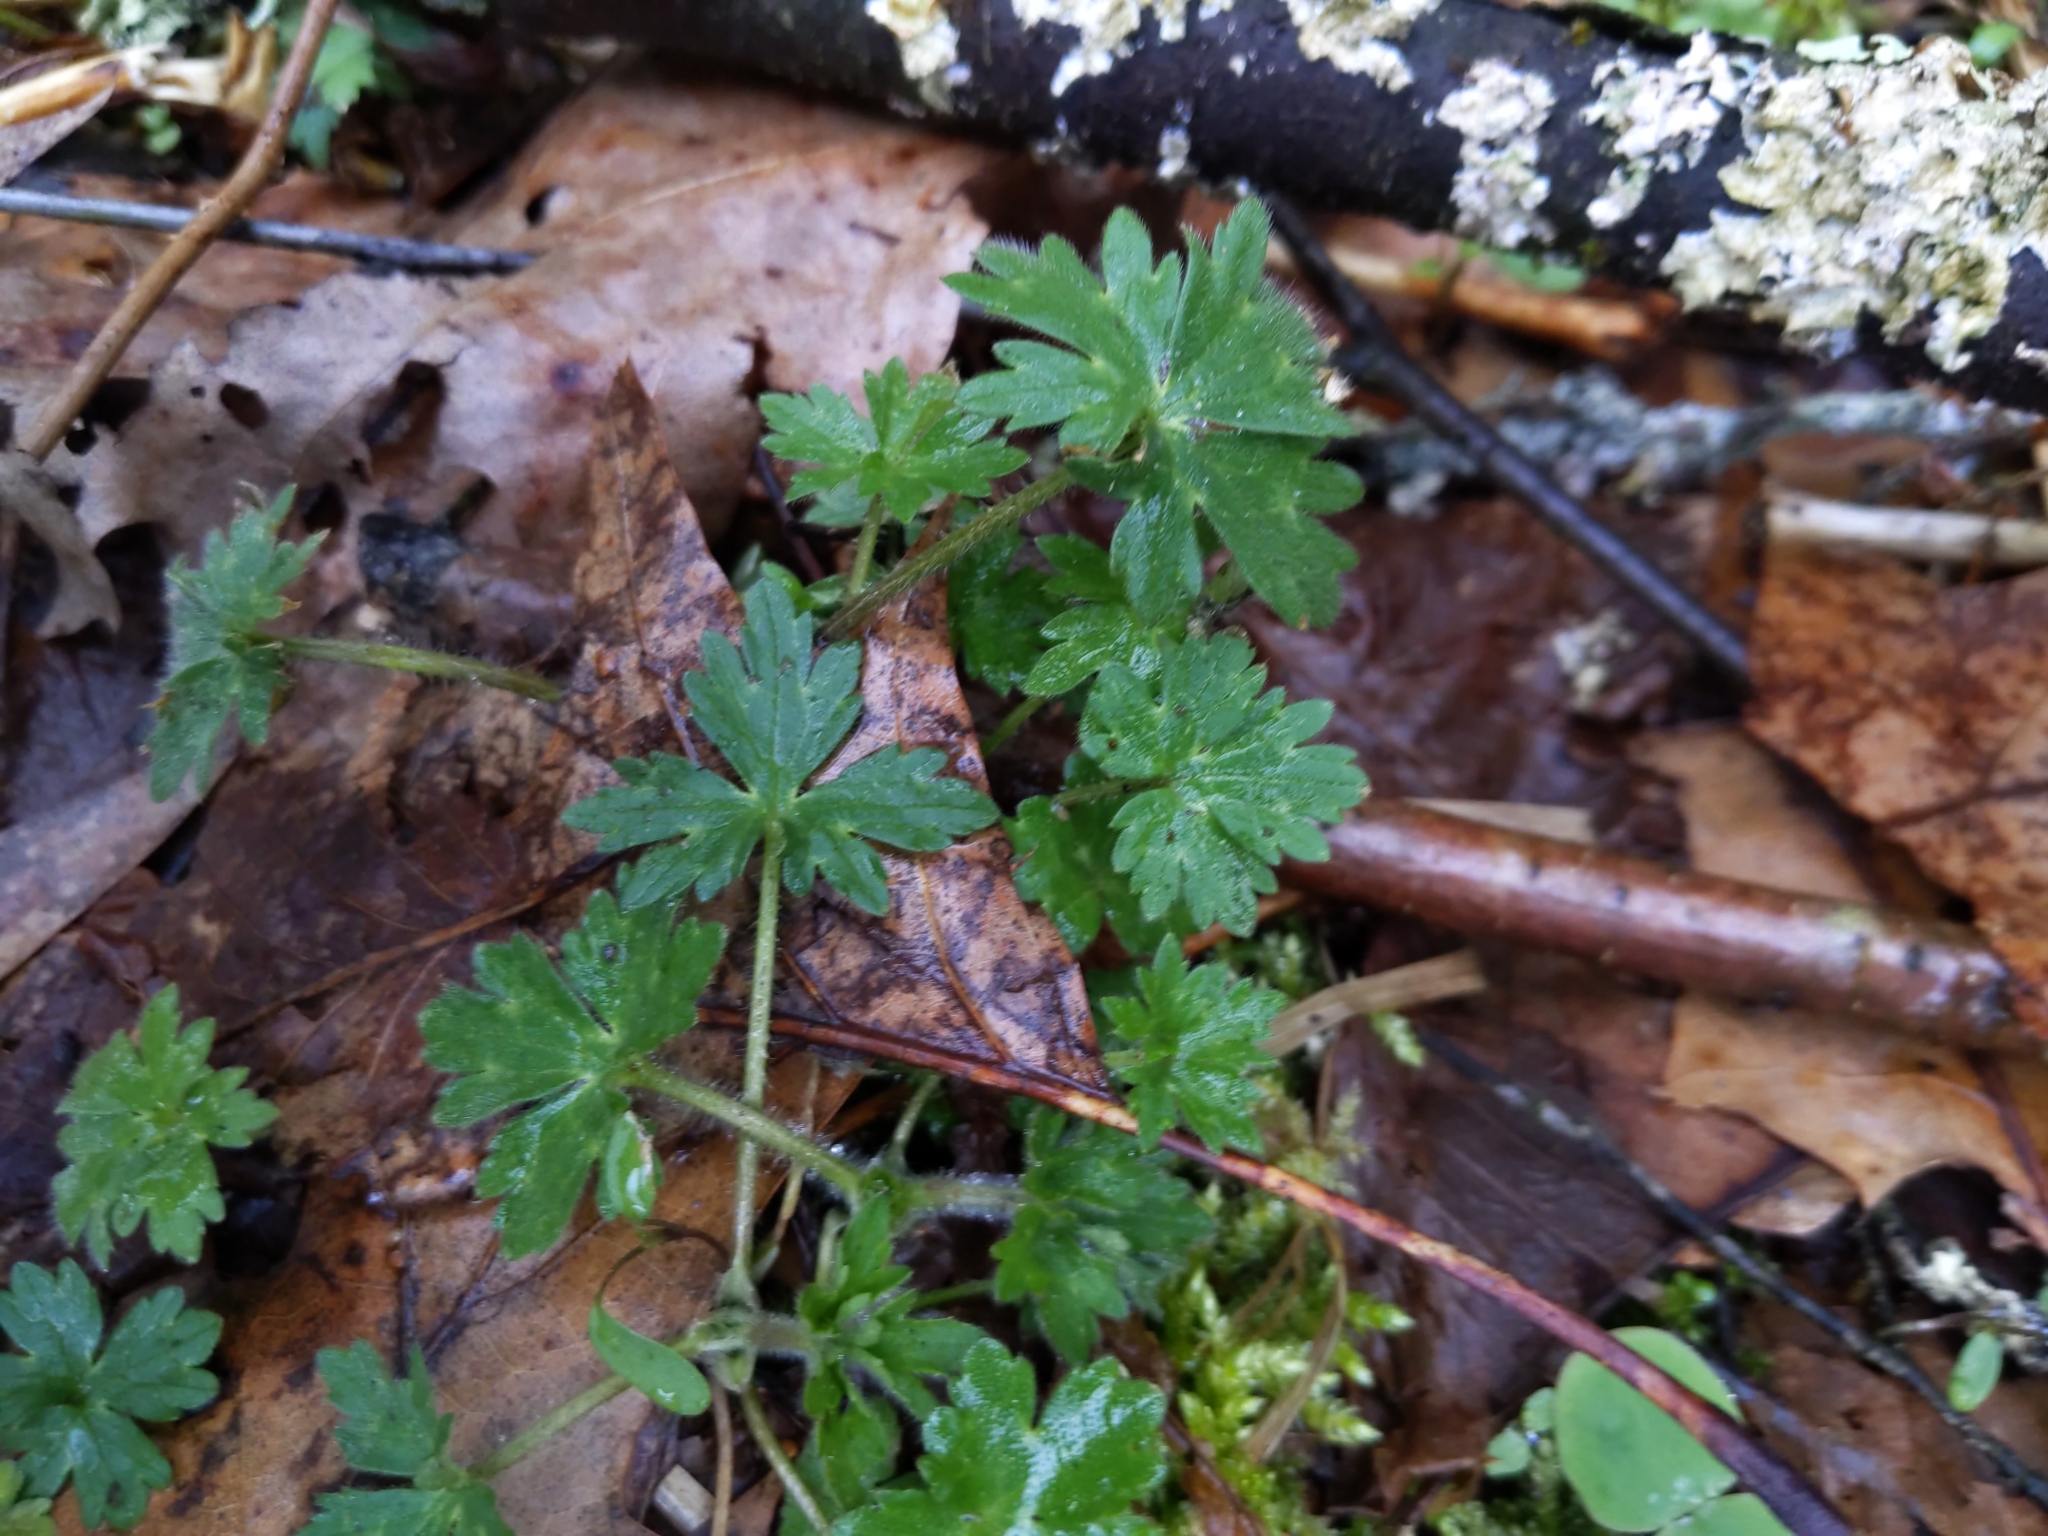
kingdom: Plantae
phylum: Tracheophyta
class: Magnoliopsida
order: Ranunculales
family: Ranunculaceae
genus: Ranunculus
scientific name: Ranunculus repens
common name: Creeping buttercup
